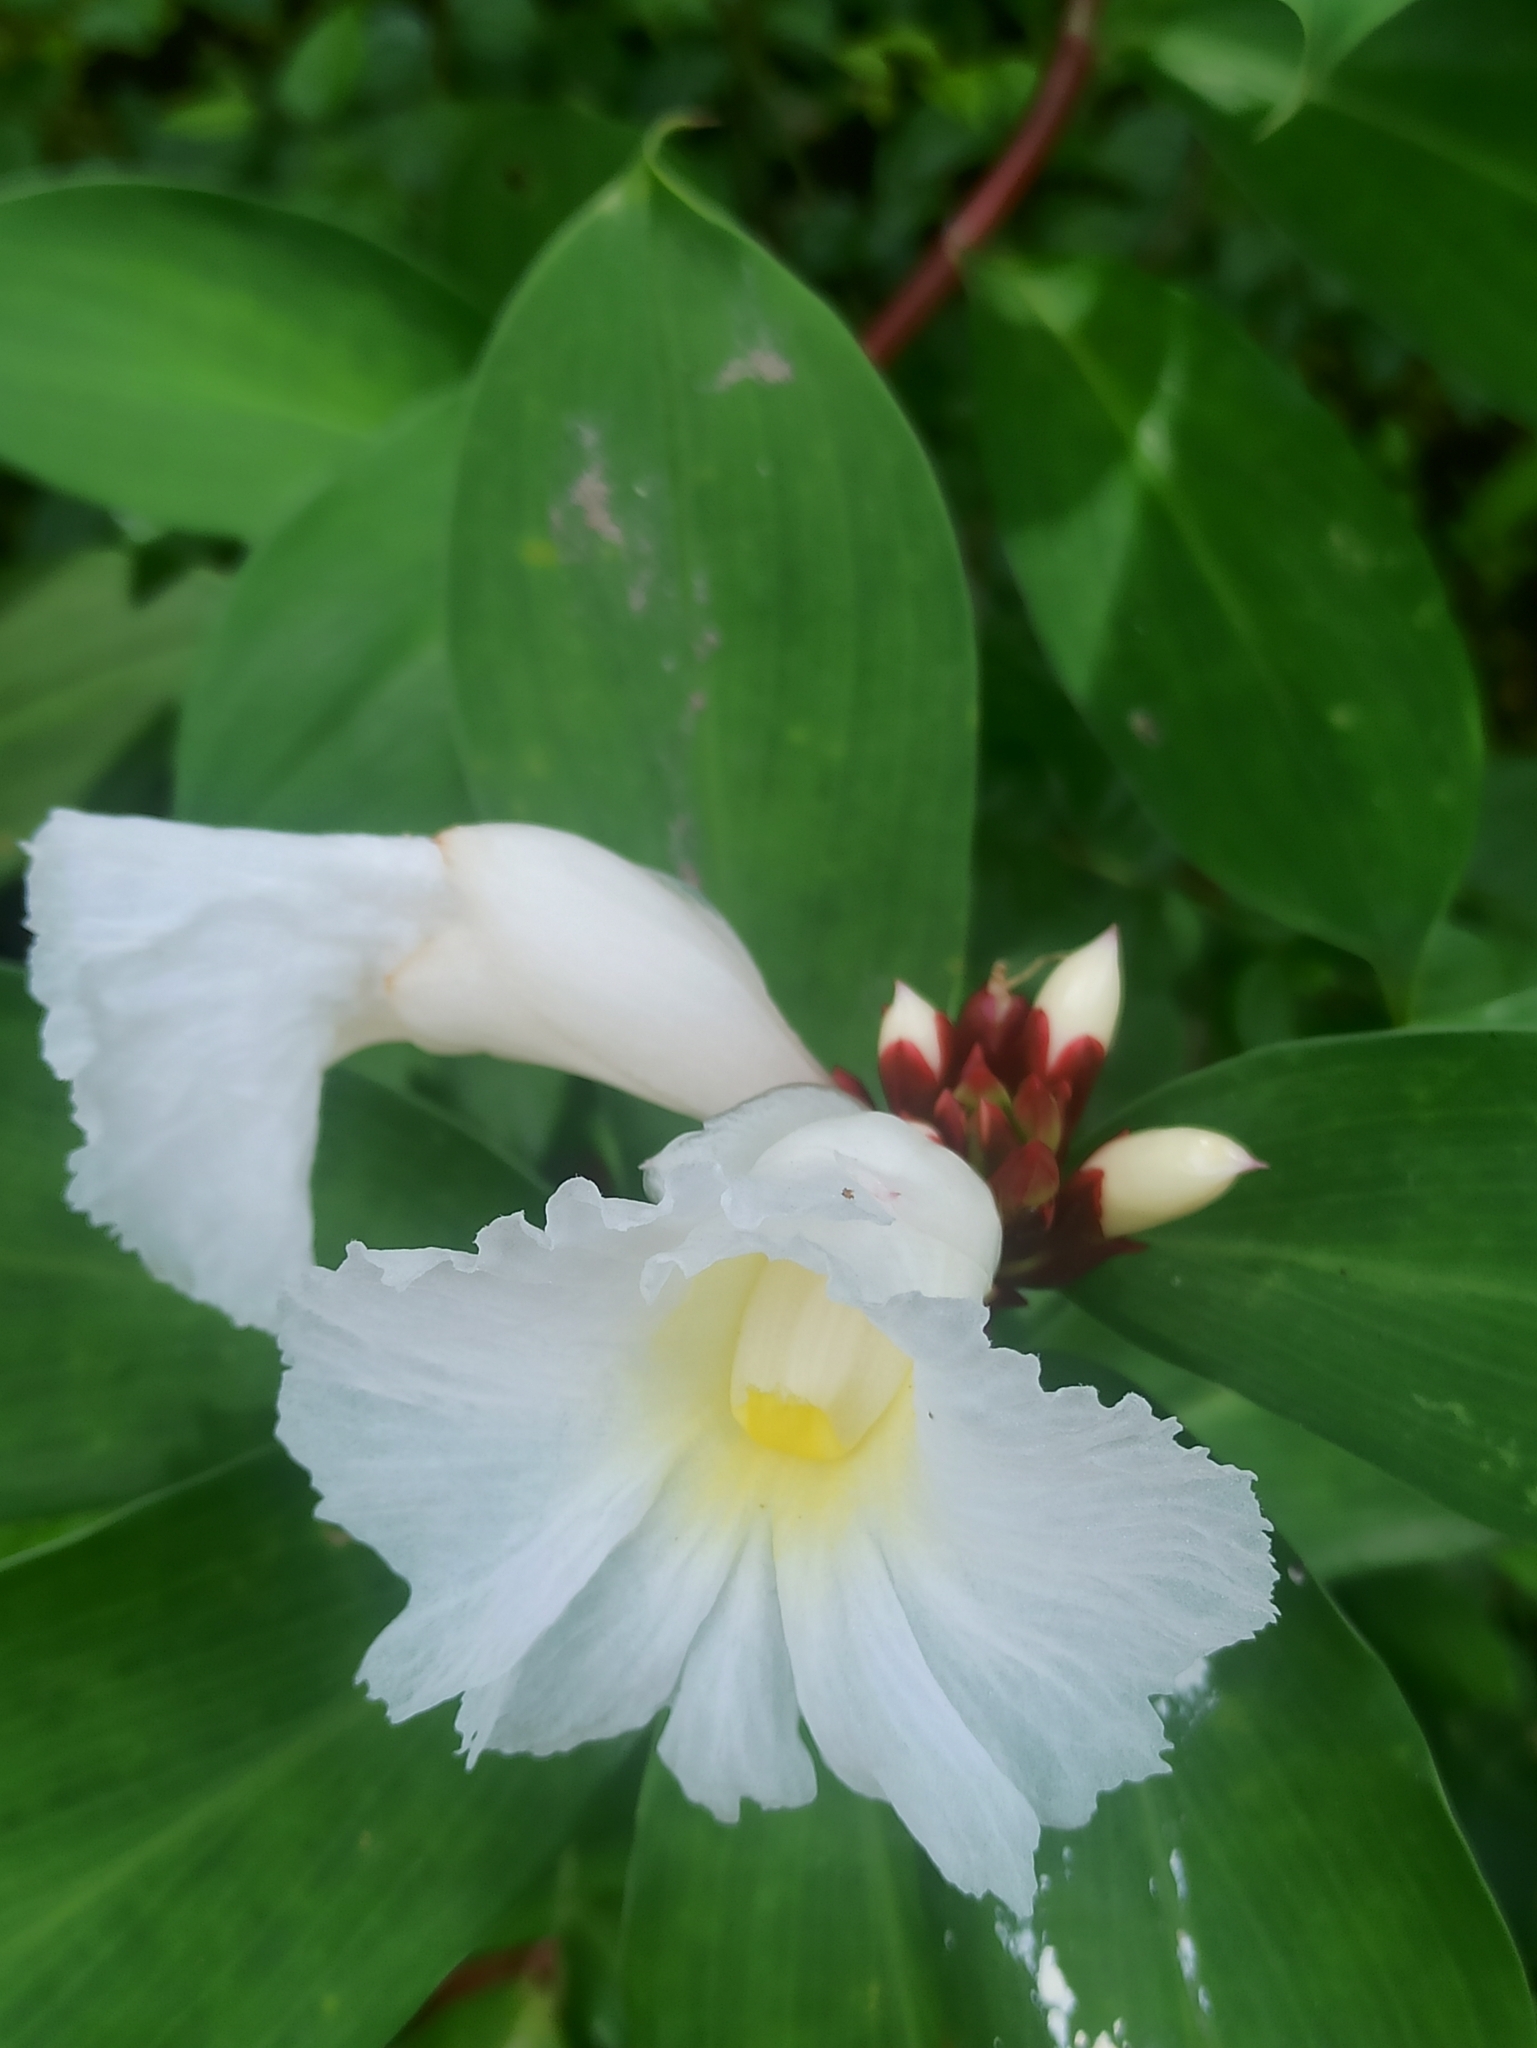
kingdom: Plantae
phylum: Tracheophyta
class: Liliopsida
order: Zingiberales
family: Costaceae
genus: Hellenia
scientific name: Hellenia speciosa
